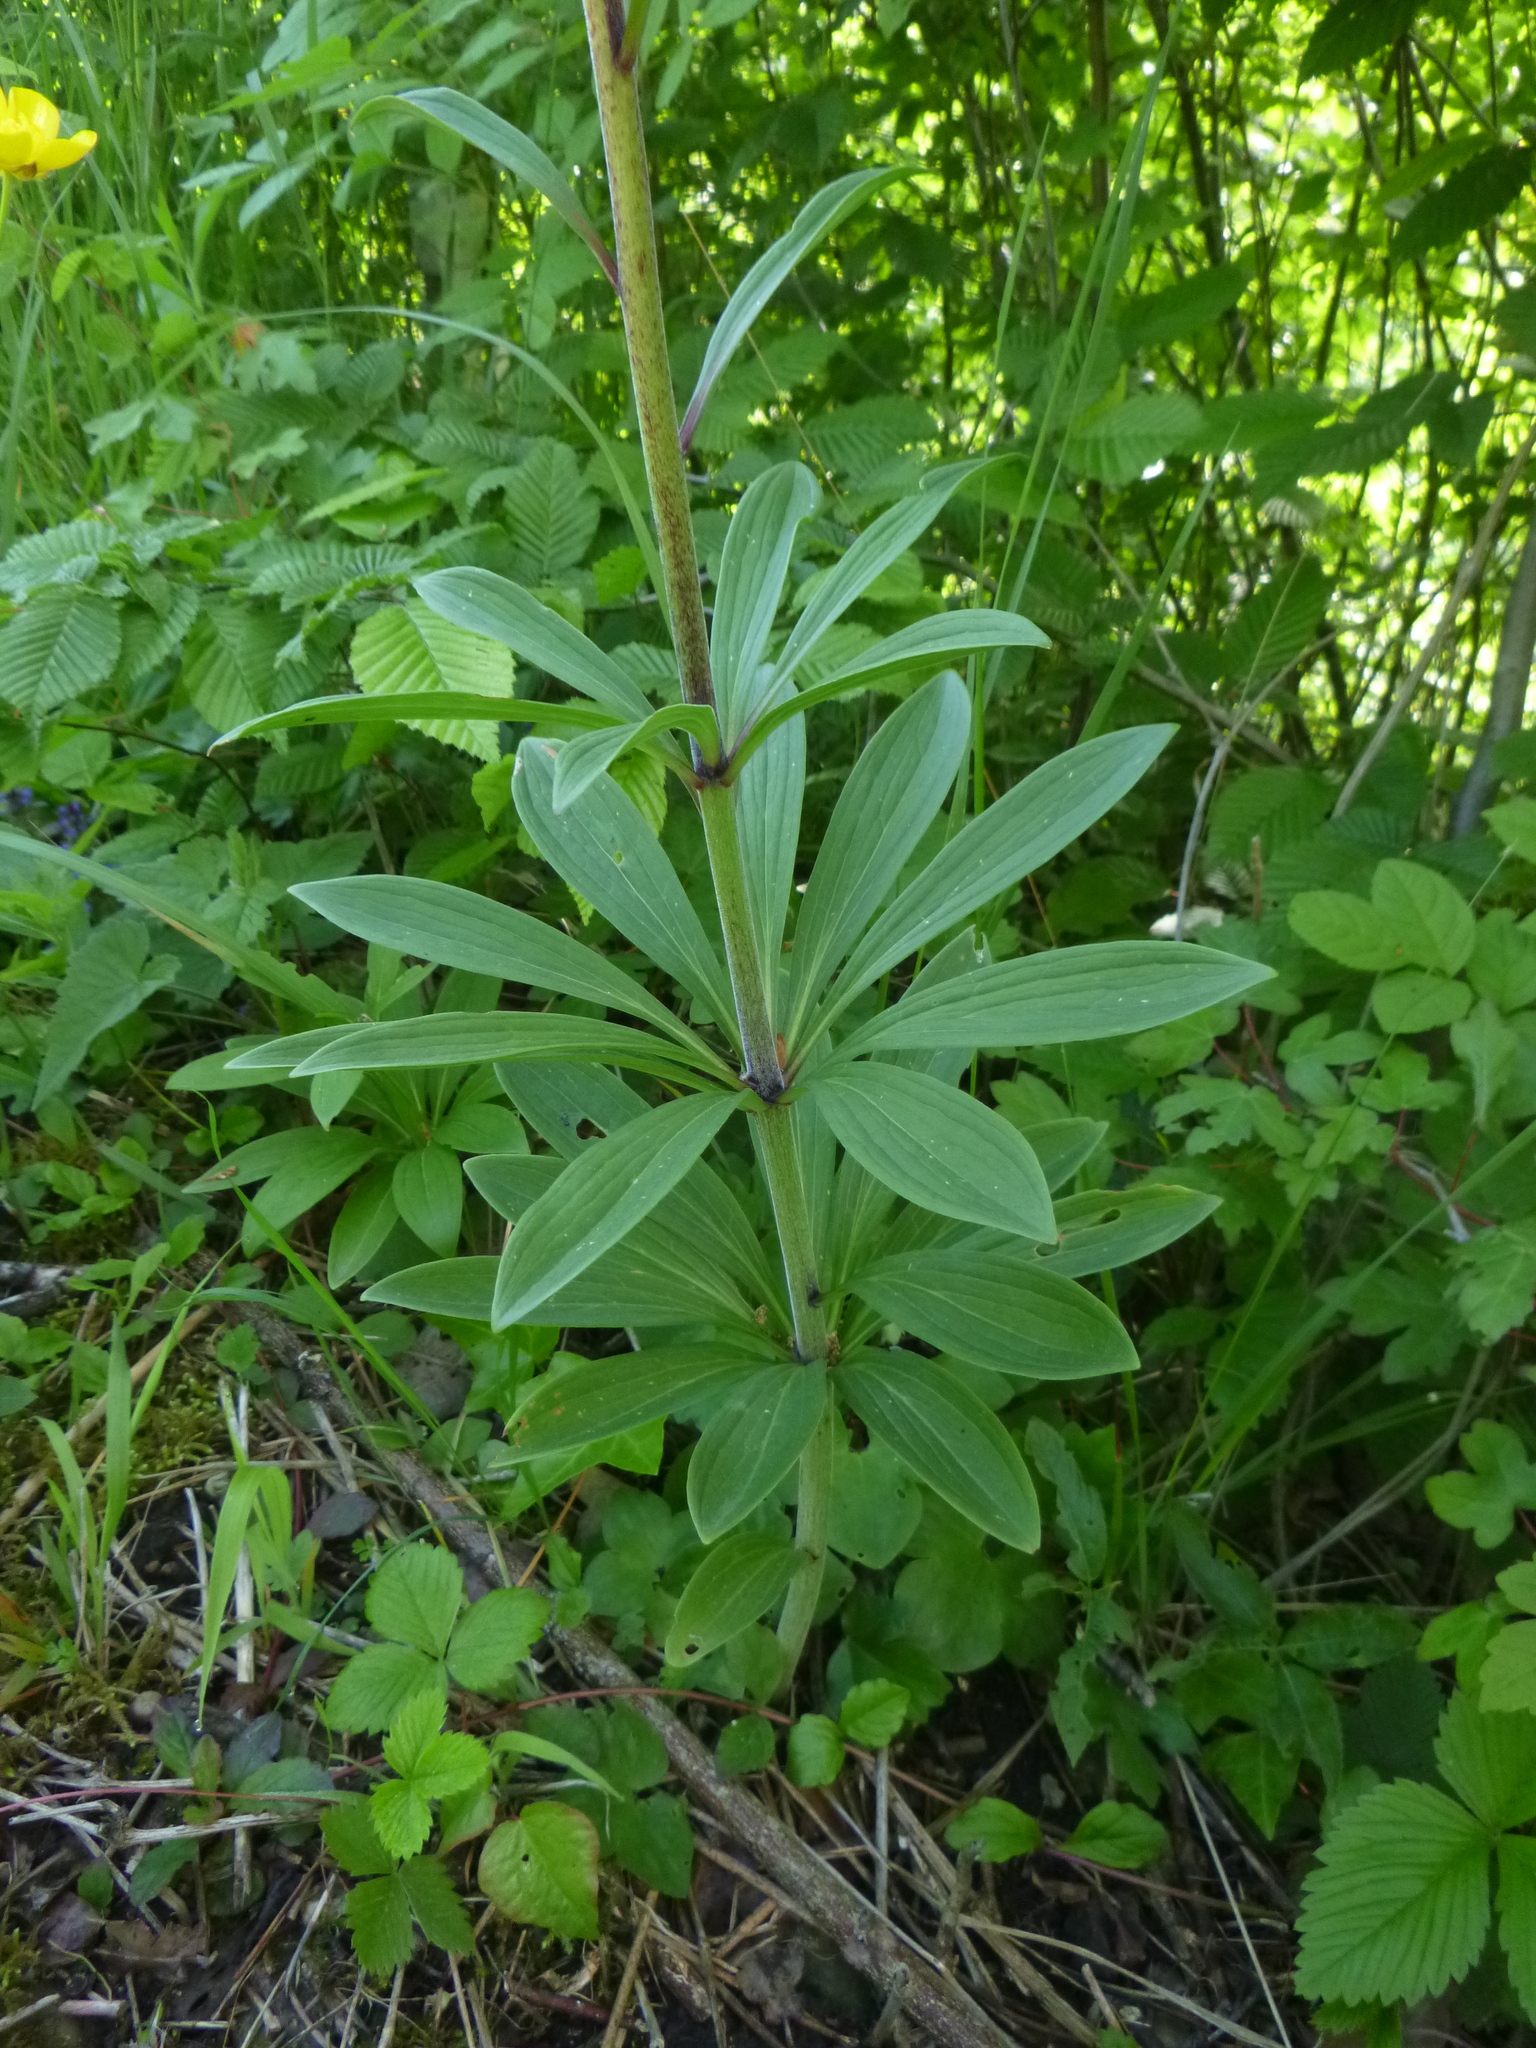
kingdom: Plantae
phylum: Tracheophyta
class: Liliopsida
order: Liliales
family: Liliaceae
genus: Lilium
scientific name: Lilium martagon
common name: Martagon lily
